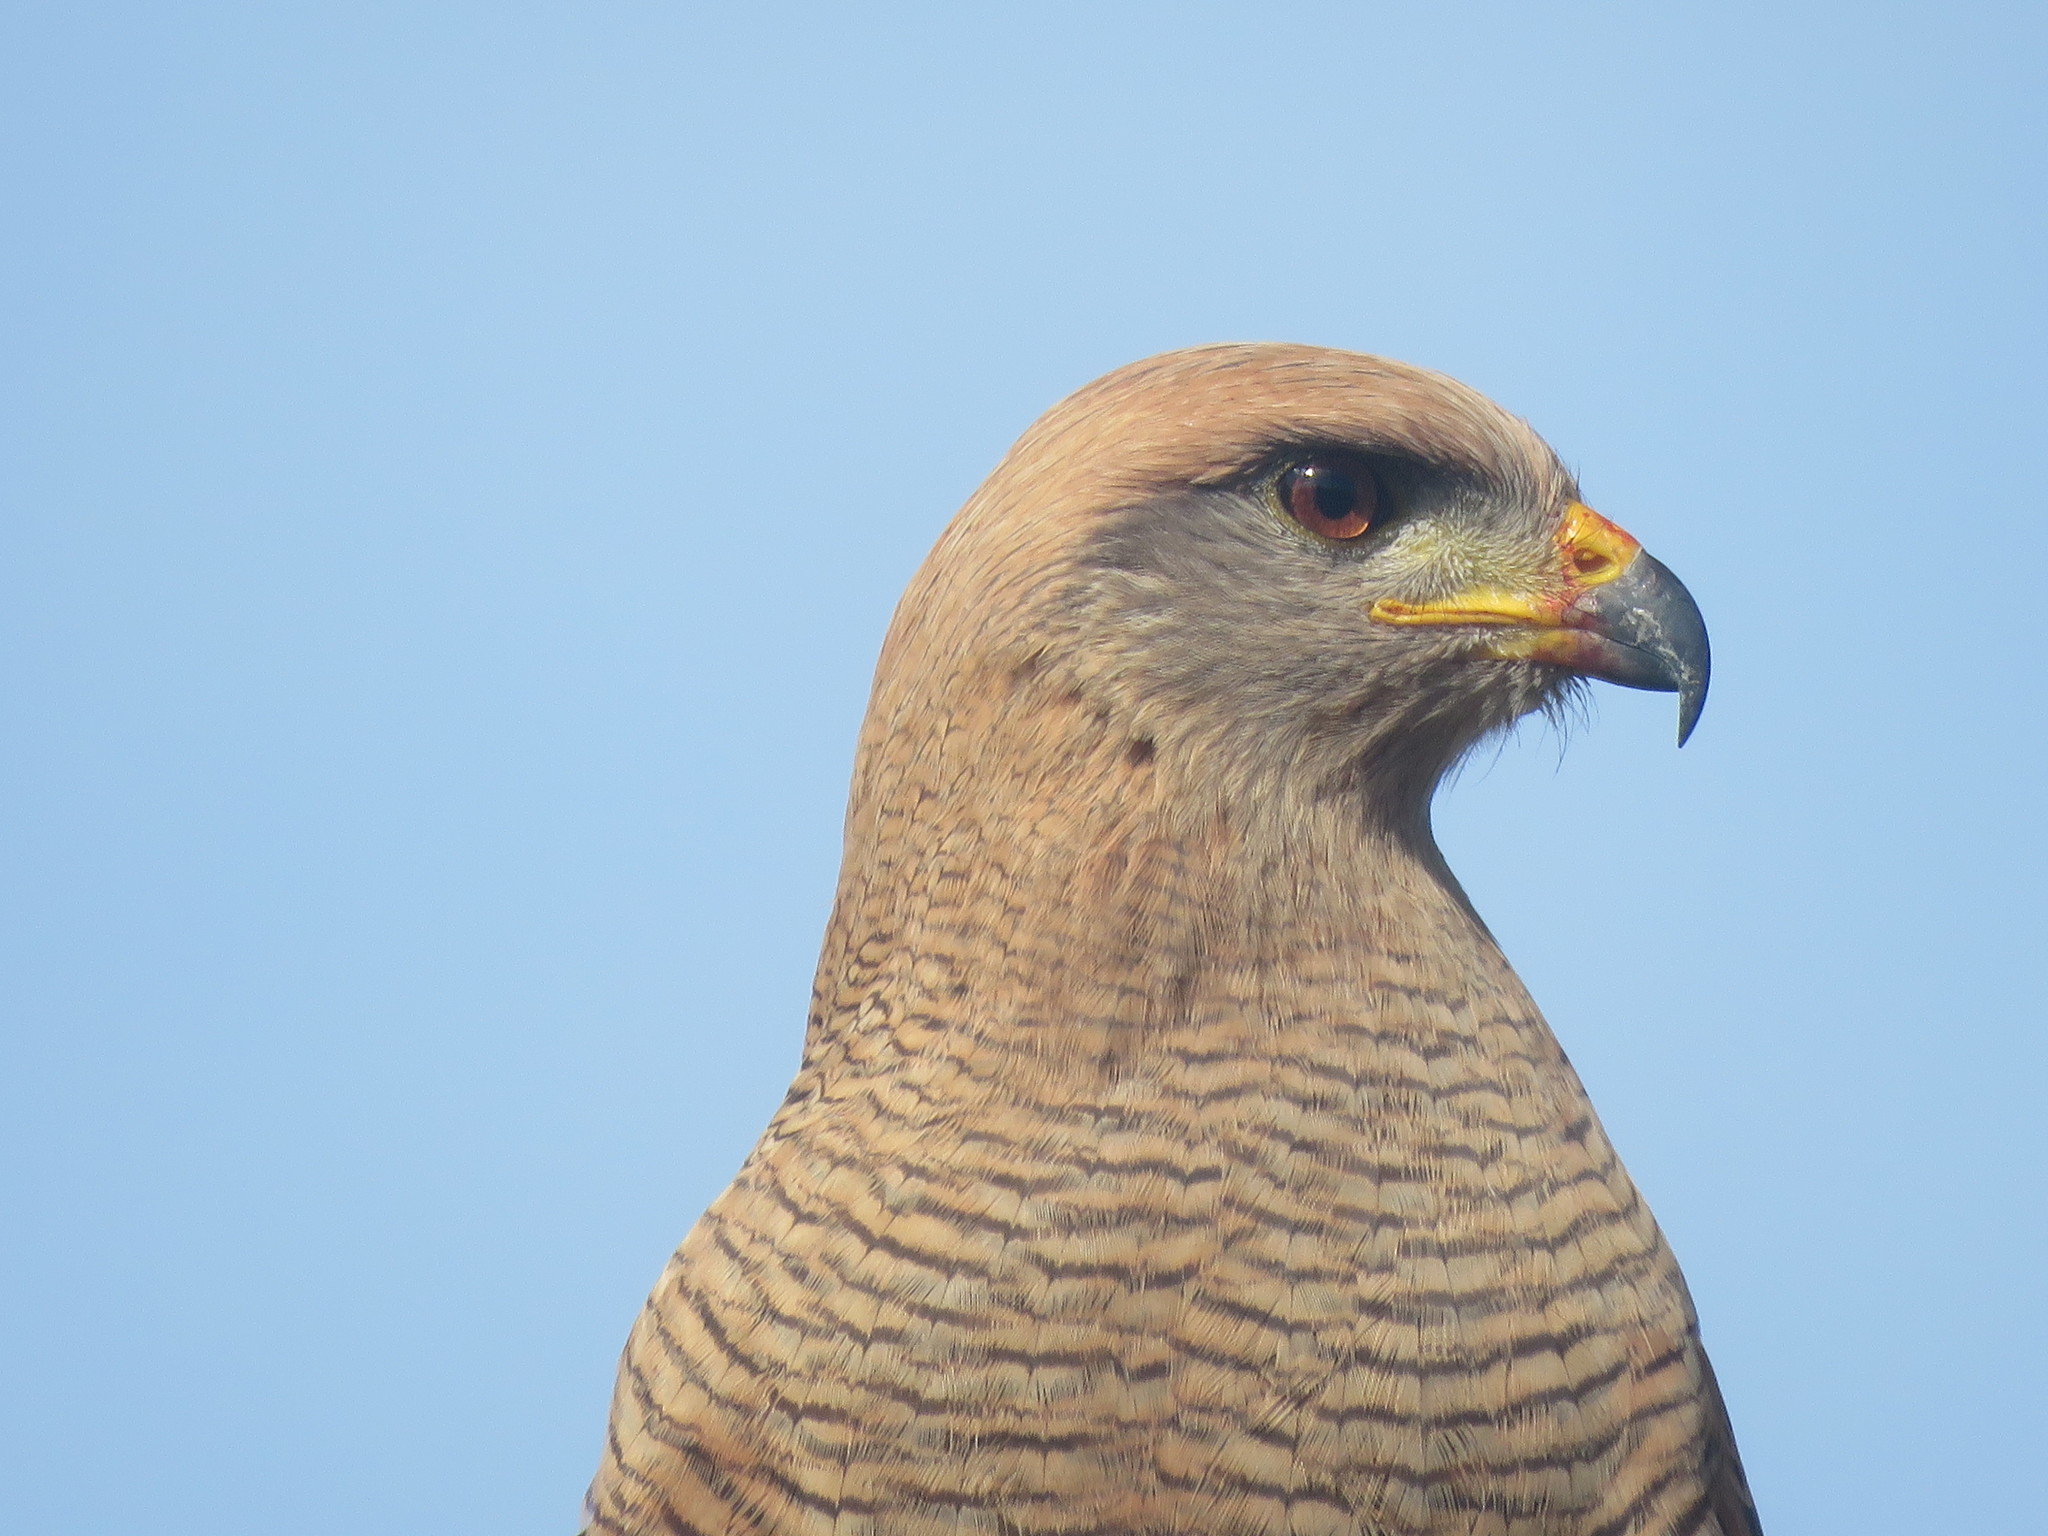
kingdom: Animalia
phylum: Chordata
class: Aves
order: Accipitriformes
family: Accipitridae
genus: Buteogallus
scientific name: Buteogallus meridionalis
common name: Savanna hawk
